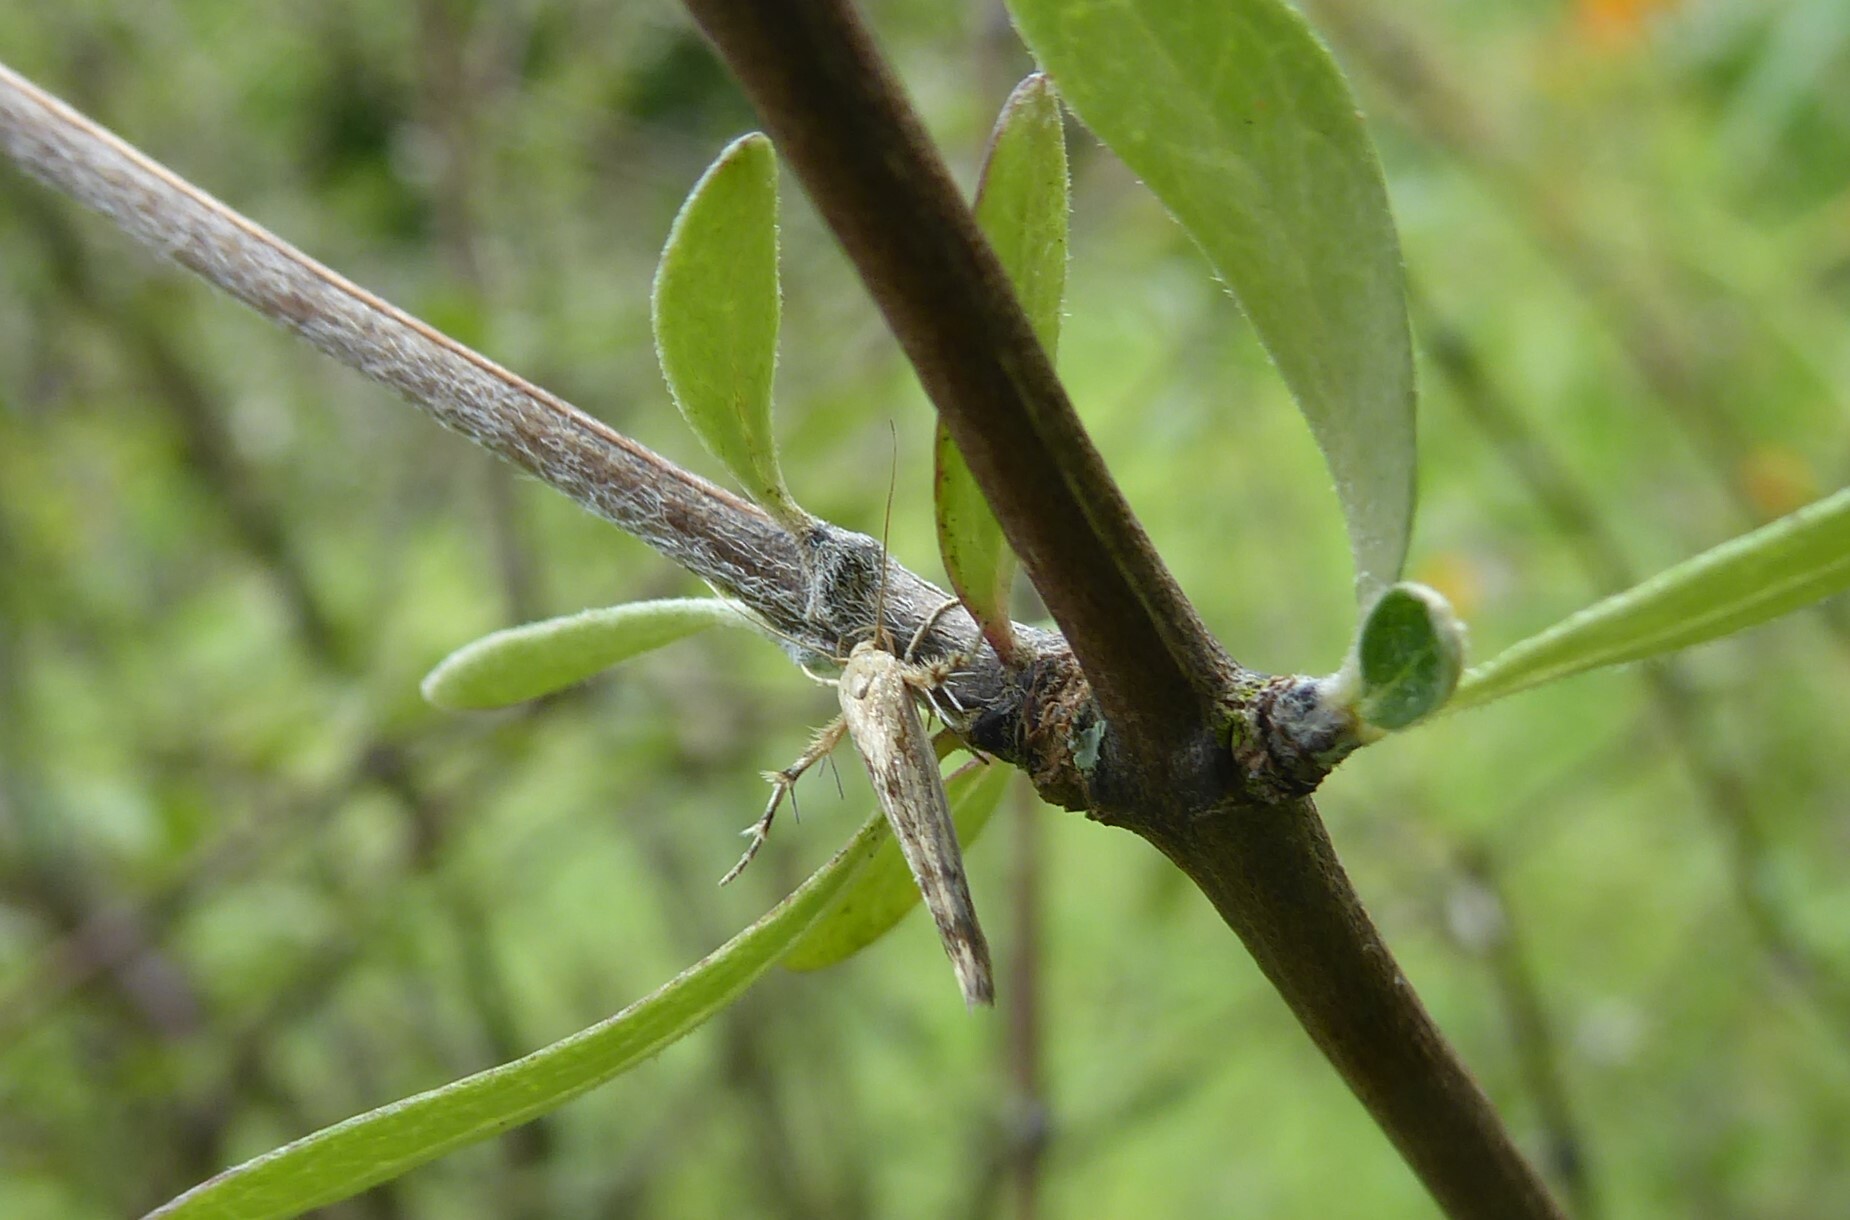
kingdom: Animalia
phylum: Arthropoda
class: Insecta
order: Lepidoptera
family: Stathmopodidae
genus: Stathmopoda
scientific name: Stathmopoda plumbiflua
